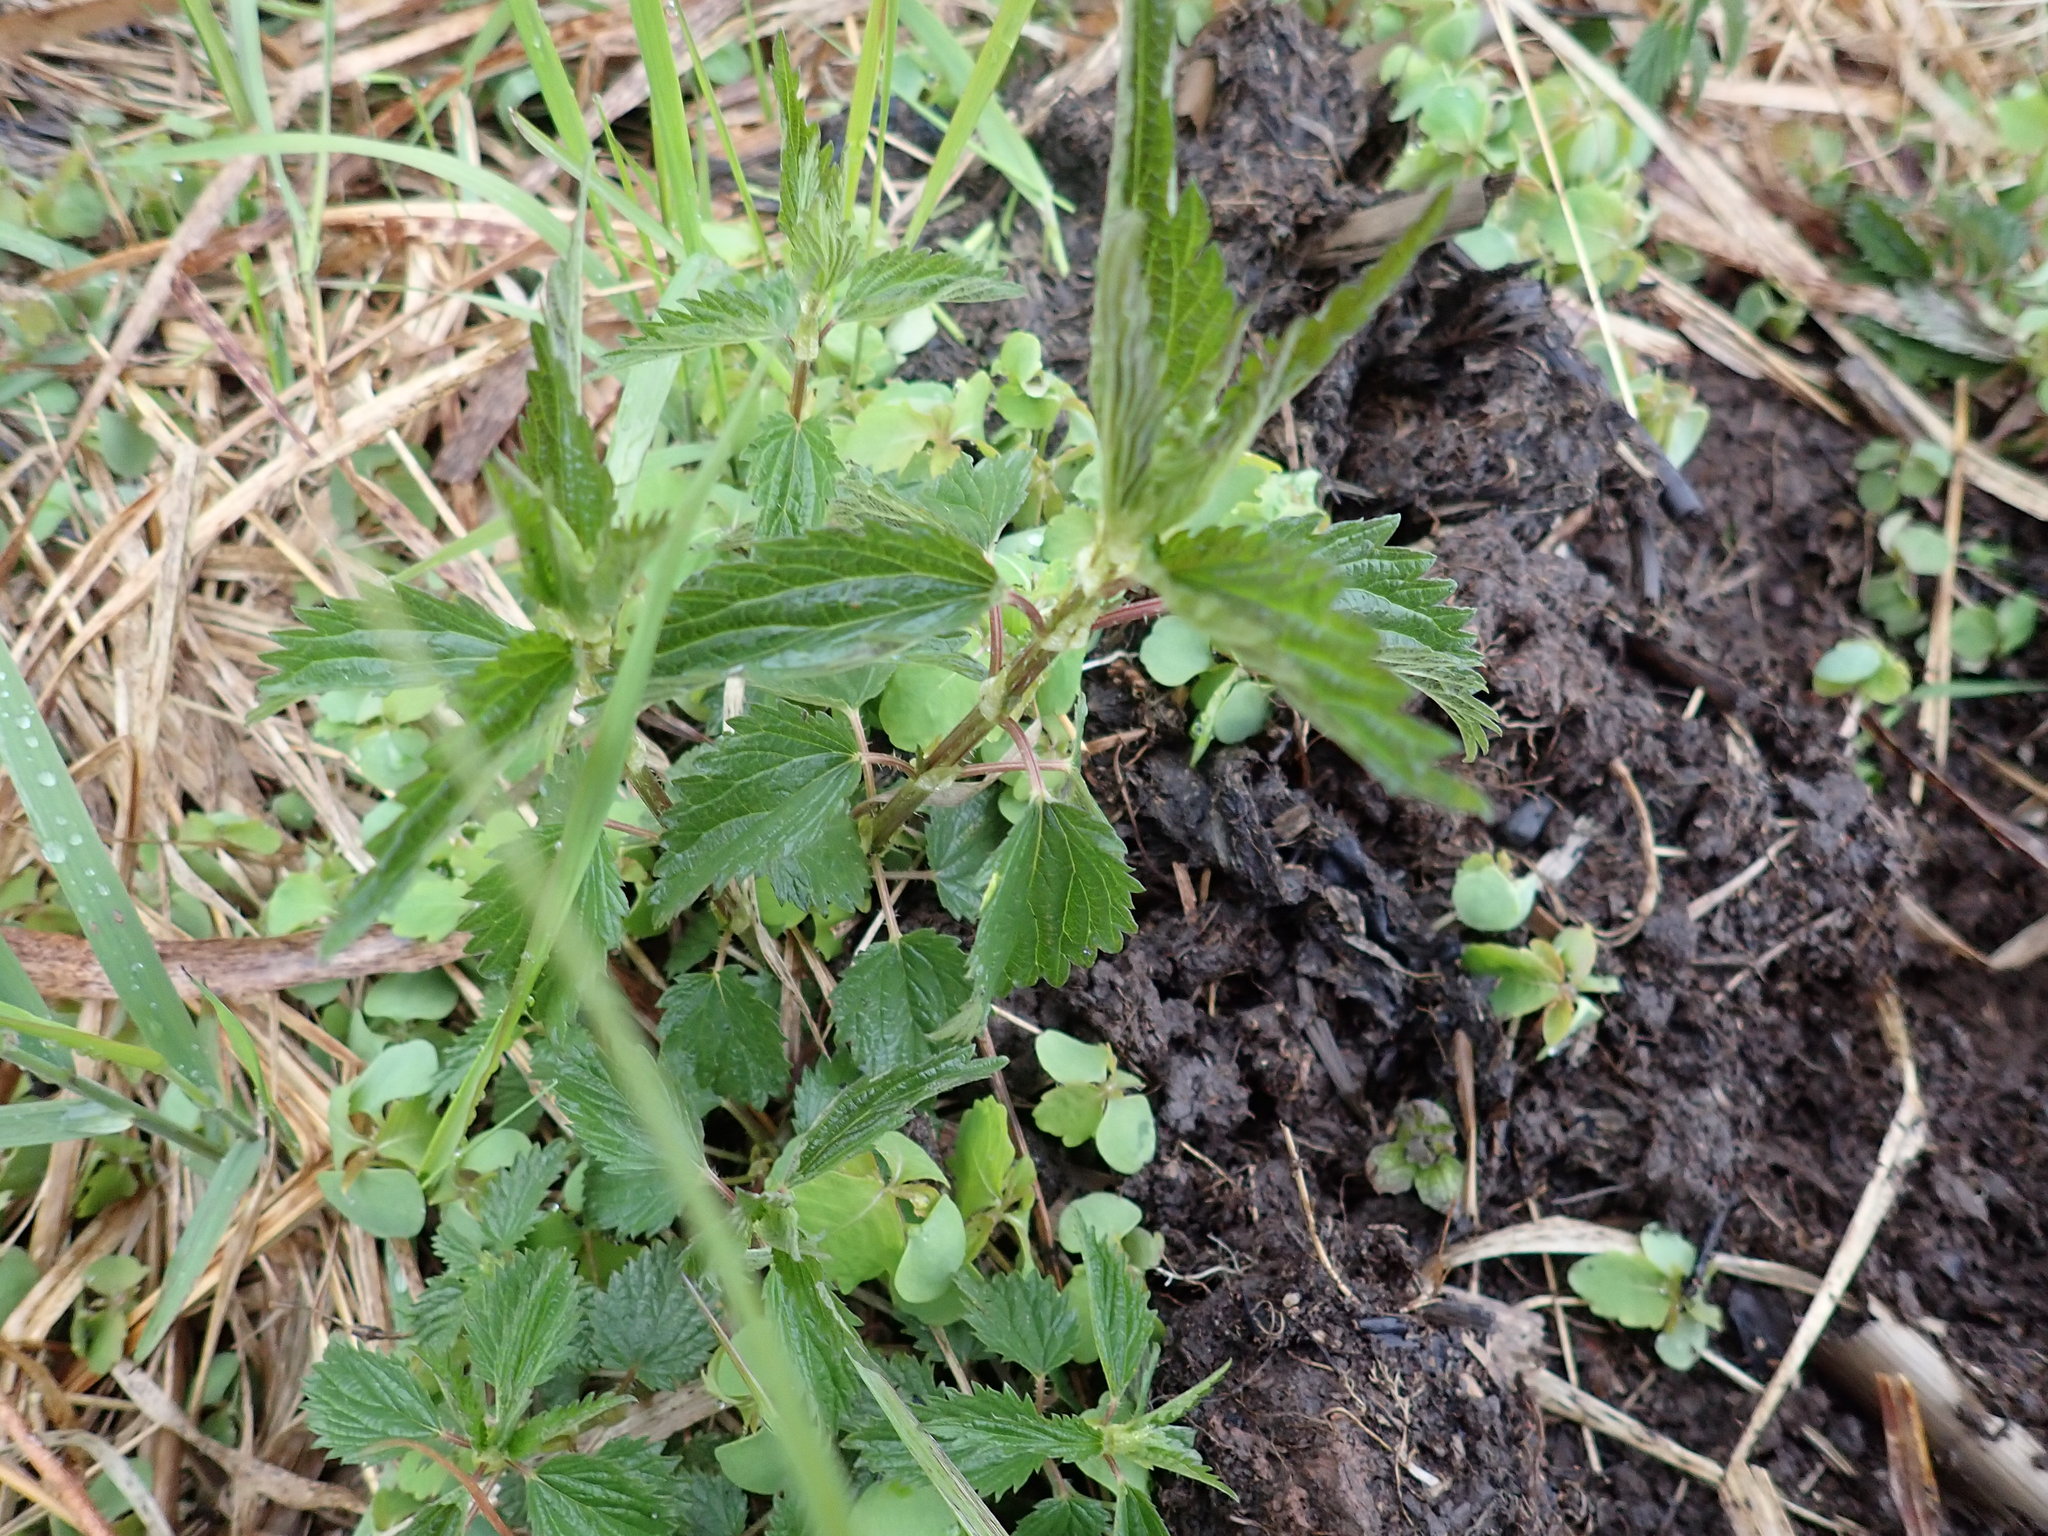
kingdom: Plantae
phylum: Tracheophyta
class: Magnoliopsida
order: Rosales
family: Urticaceae
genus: Urtica
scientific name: Urtica dioica
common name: Common nettle
